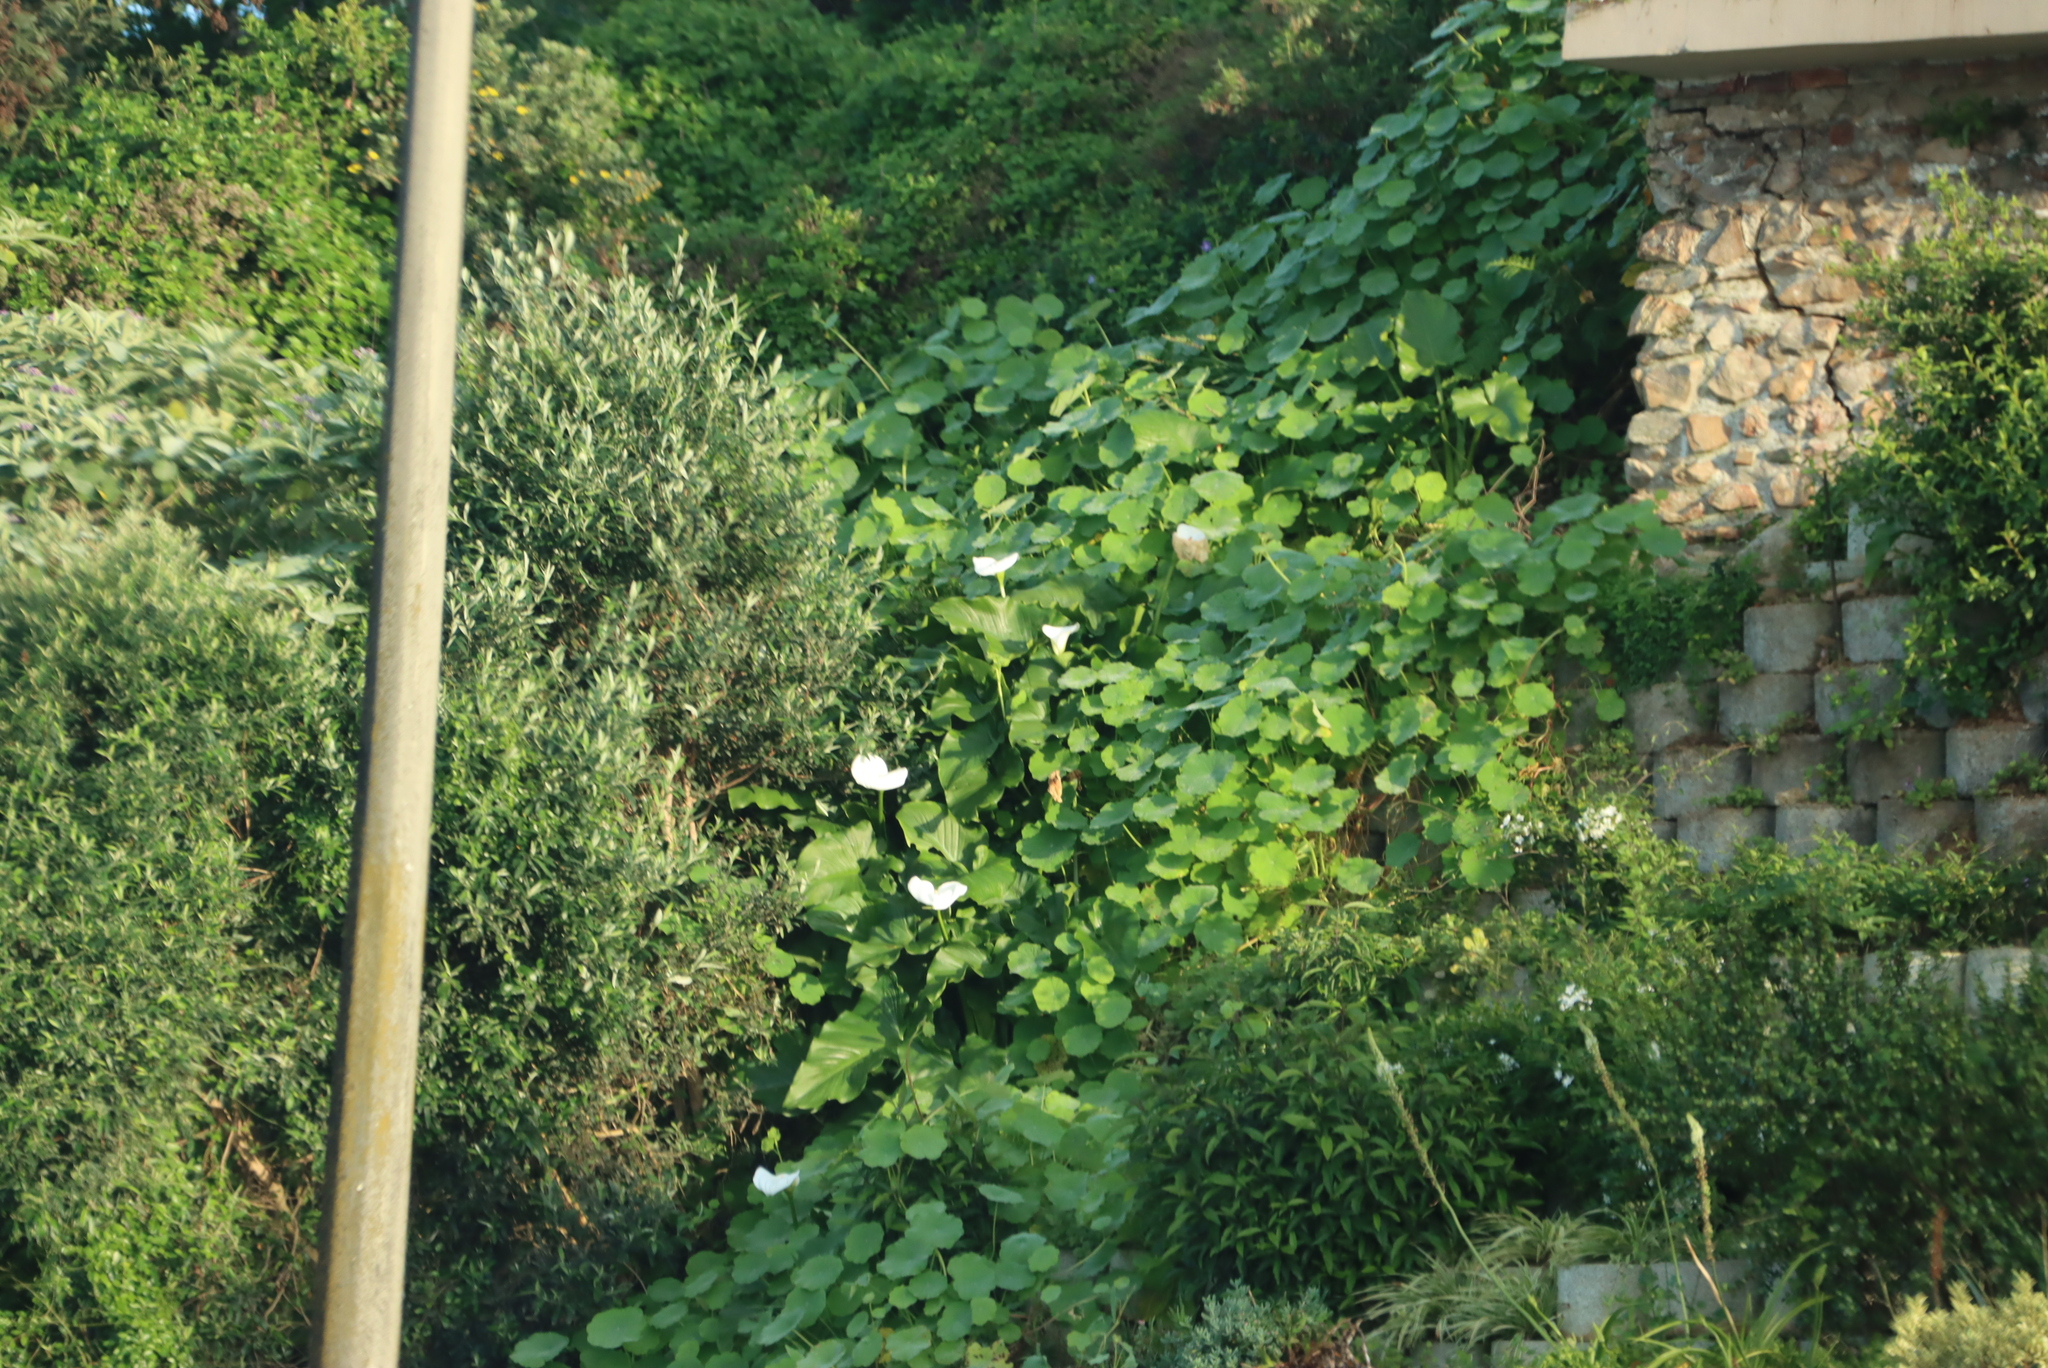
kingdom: Plantae
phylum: Tracheophyta
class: Liliopsida
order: Alismatales
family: Araceae
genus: Zantedeschia
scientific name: Zantedeschia aethiopica
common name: Altar-lily
